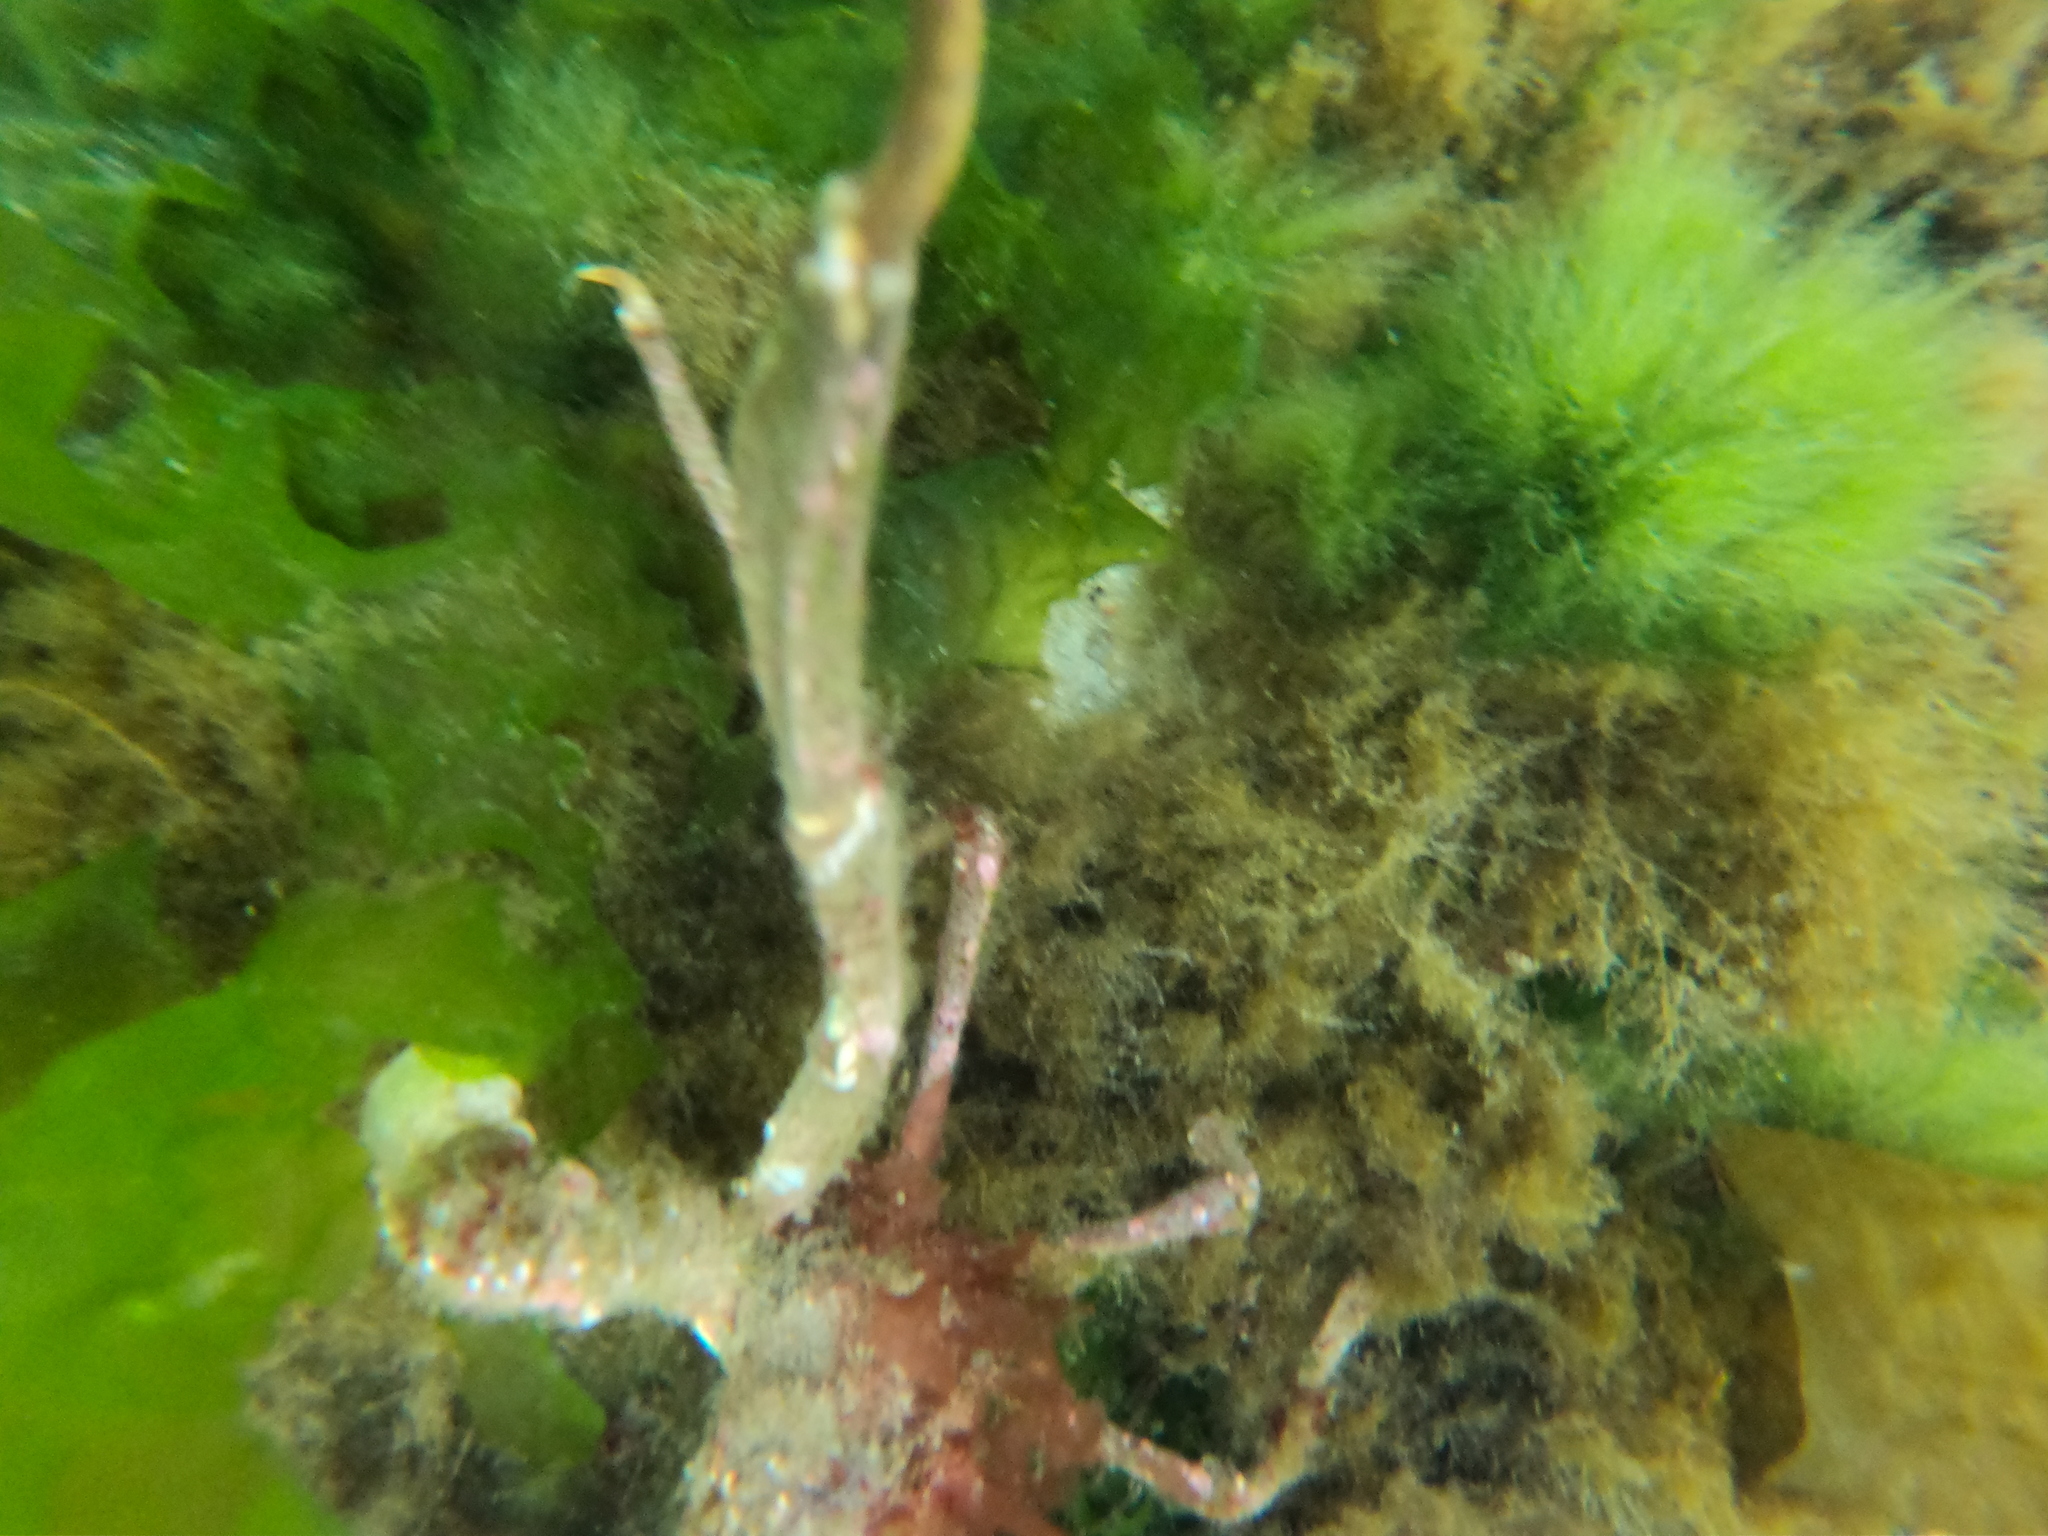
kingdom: Animalia
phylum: Arthropoda
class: Malacostraca
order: Decapoda
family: Inachidae
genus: Eurypodius
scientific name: Eurypodius longirostris
